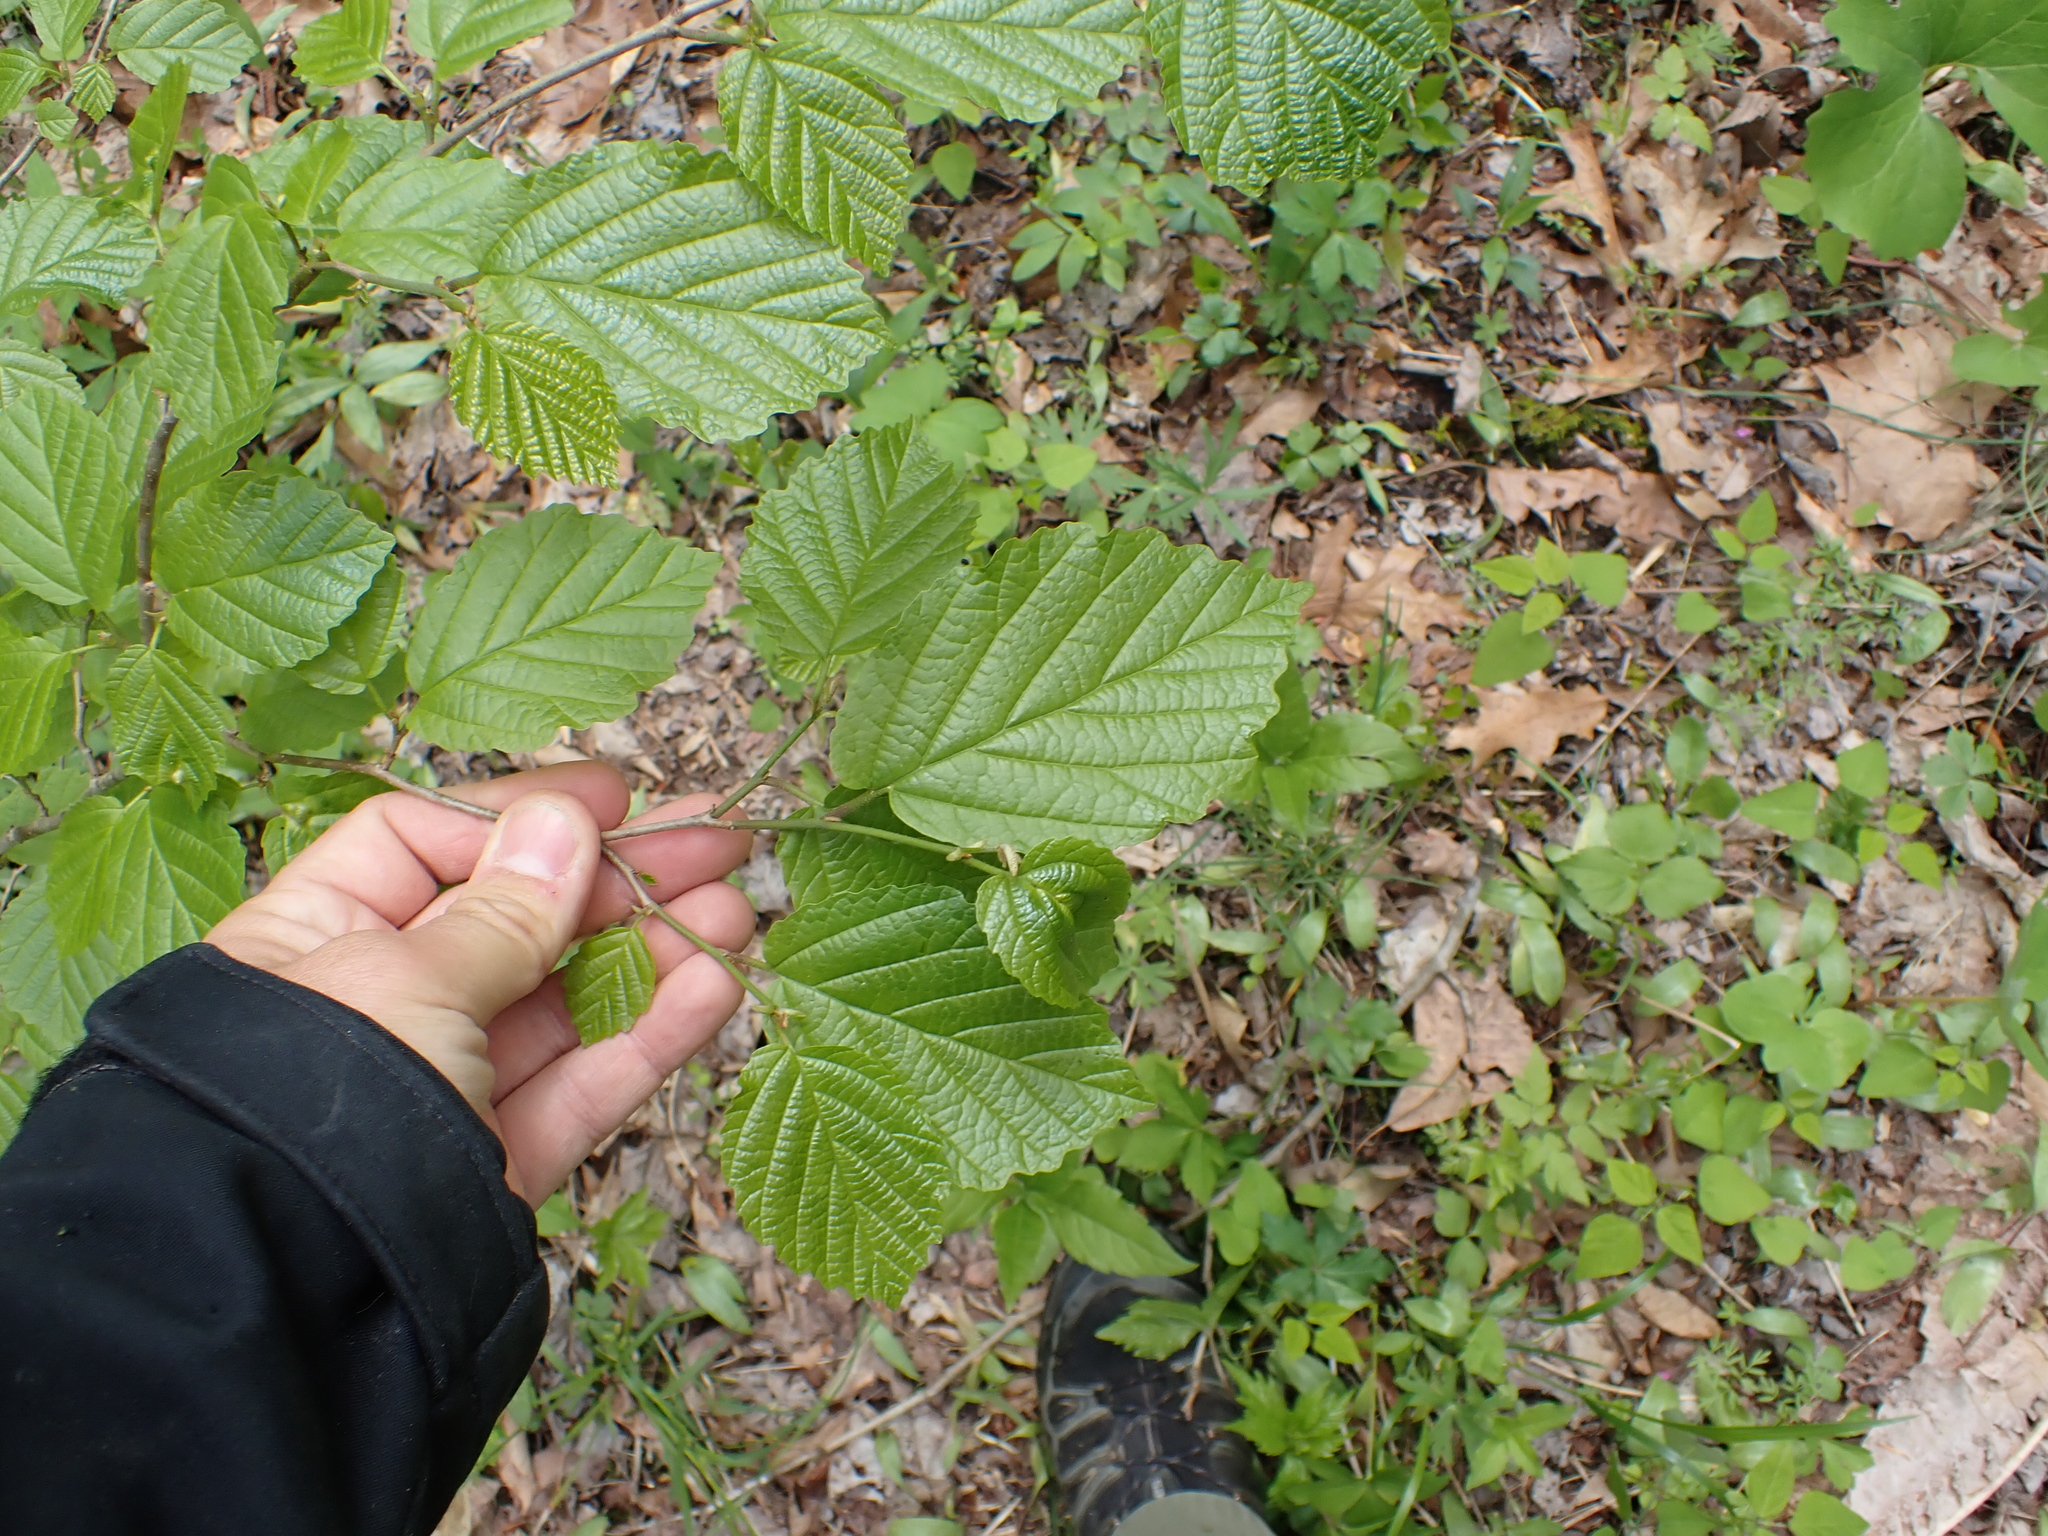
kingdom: Plantae
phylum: Tracheophyta
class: Magnoliopsida
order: Saxifragales
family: Hamamelidaceae
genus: Hamamelis
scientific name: Hamamelis virginiana
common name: Witch-hazel
